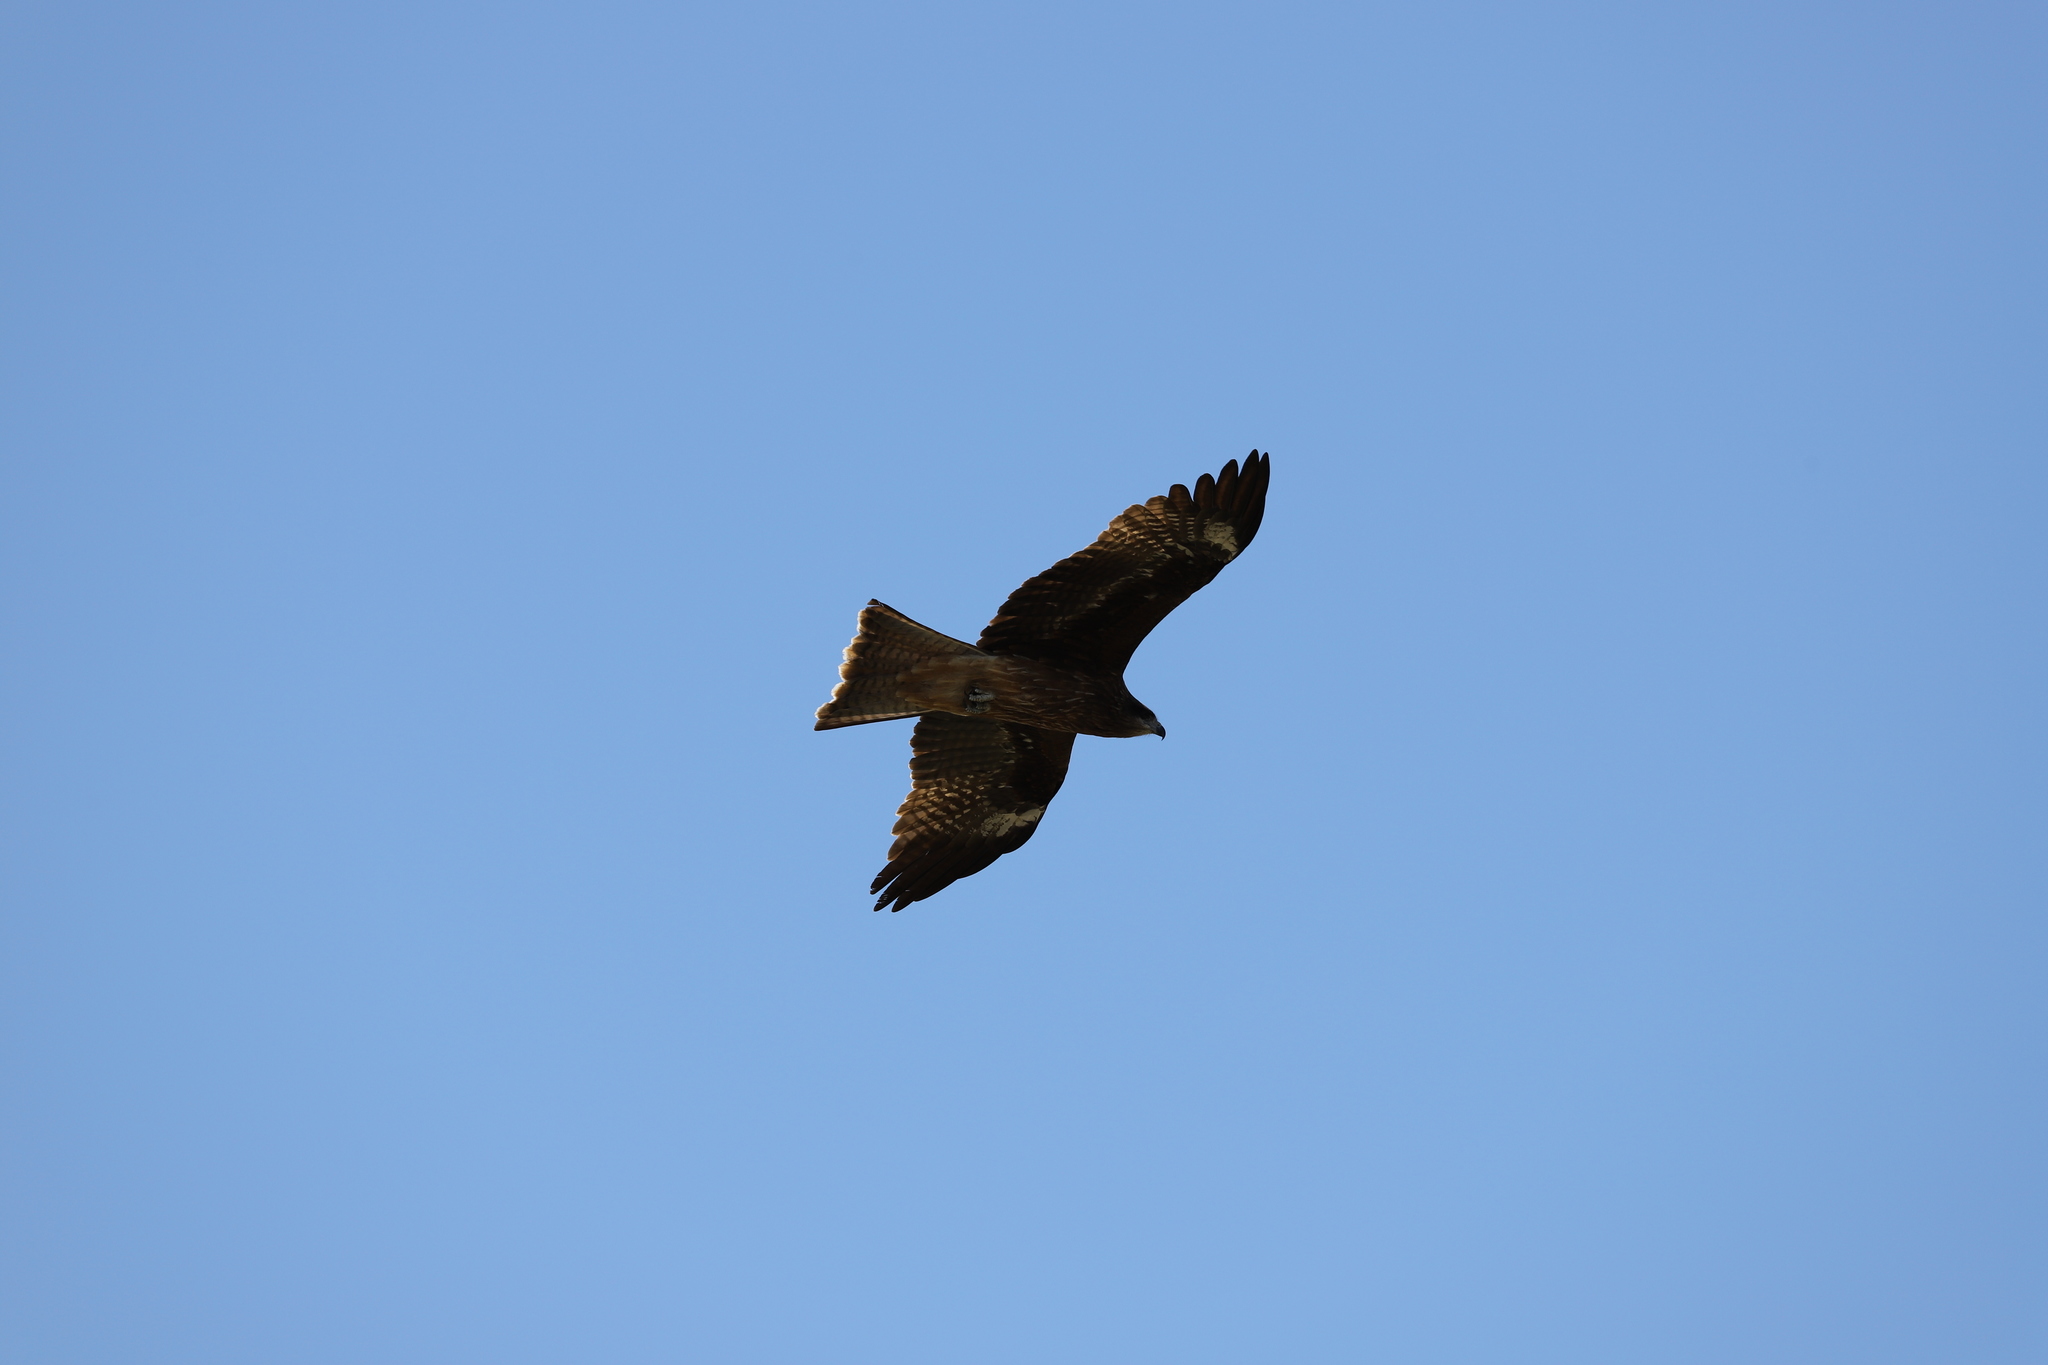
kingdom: Animalia
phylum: Chordata
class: Aves
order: Accipitriformes
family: Accipitridae
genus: Milvus
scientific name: Milvus migrans
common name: Black kite
